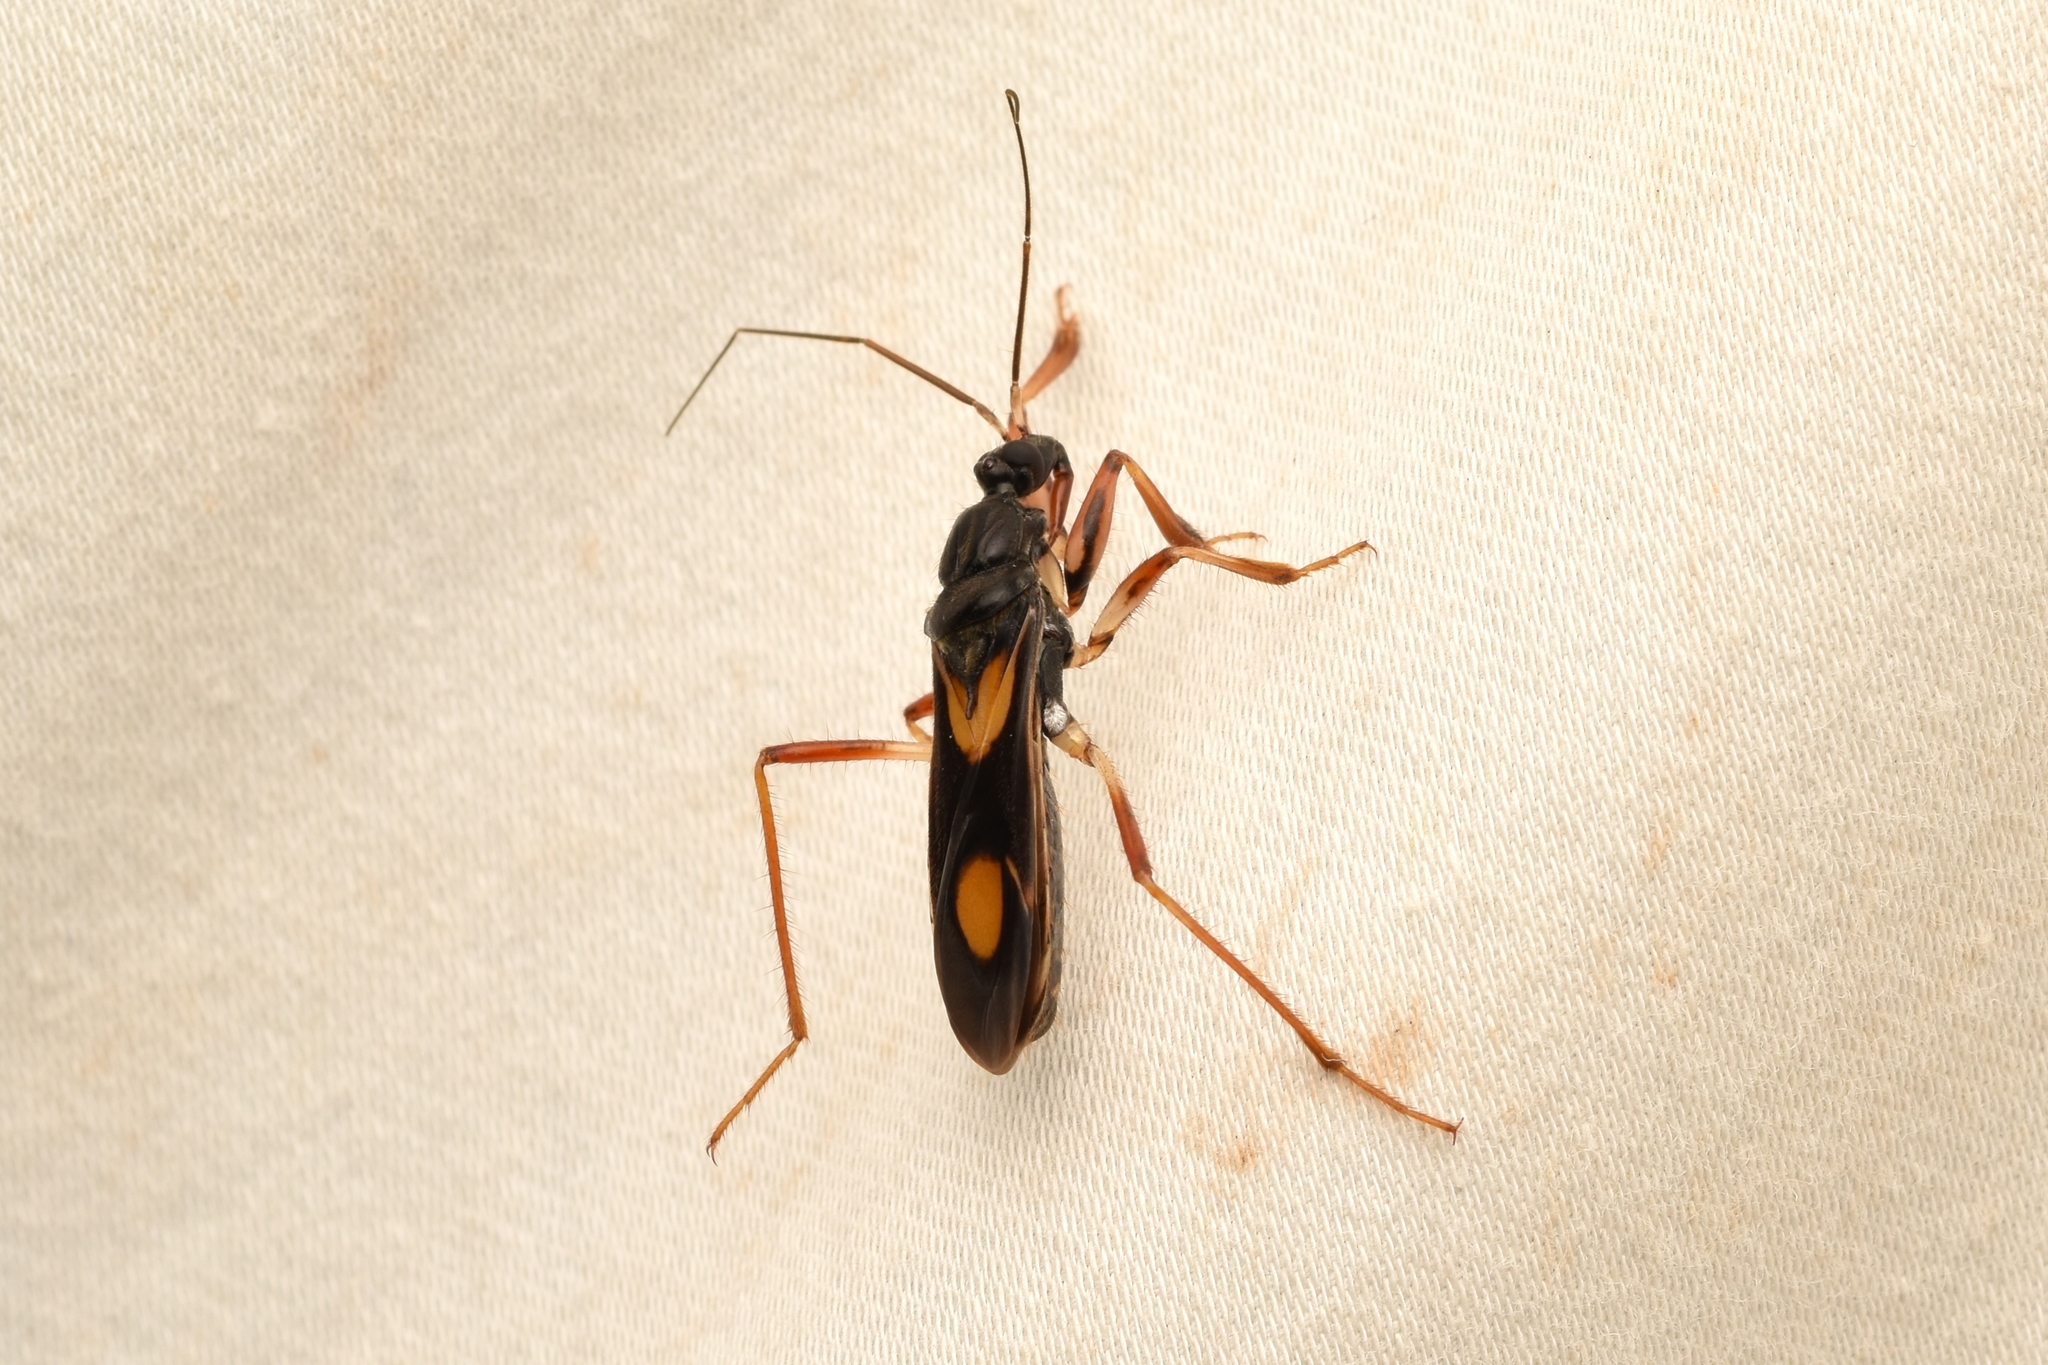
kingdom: Animalia
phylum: Arthropoda
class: Insecta
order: Hemiptera
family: Reduviidae
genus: Rasahus
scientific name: Rasahus hamatus
